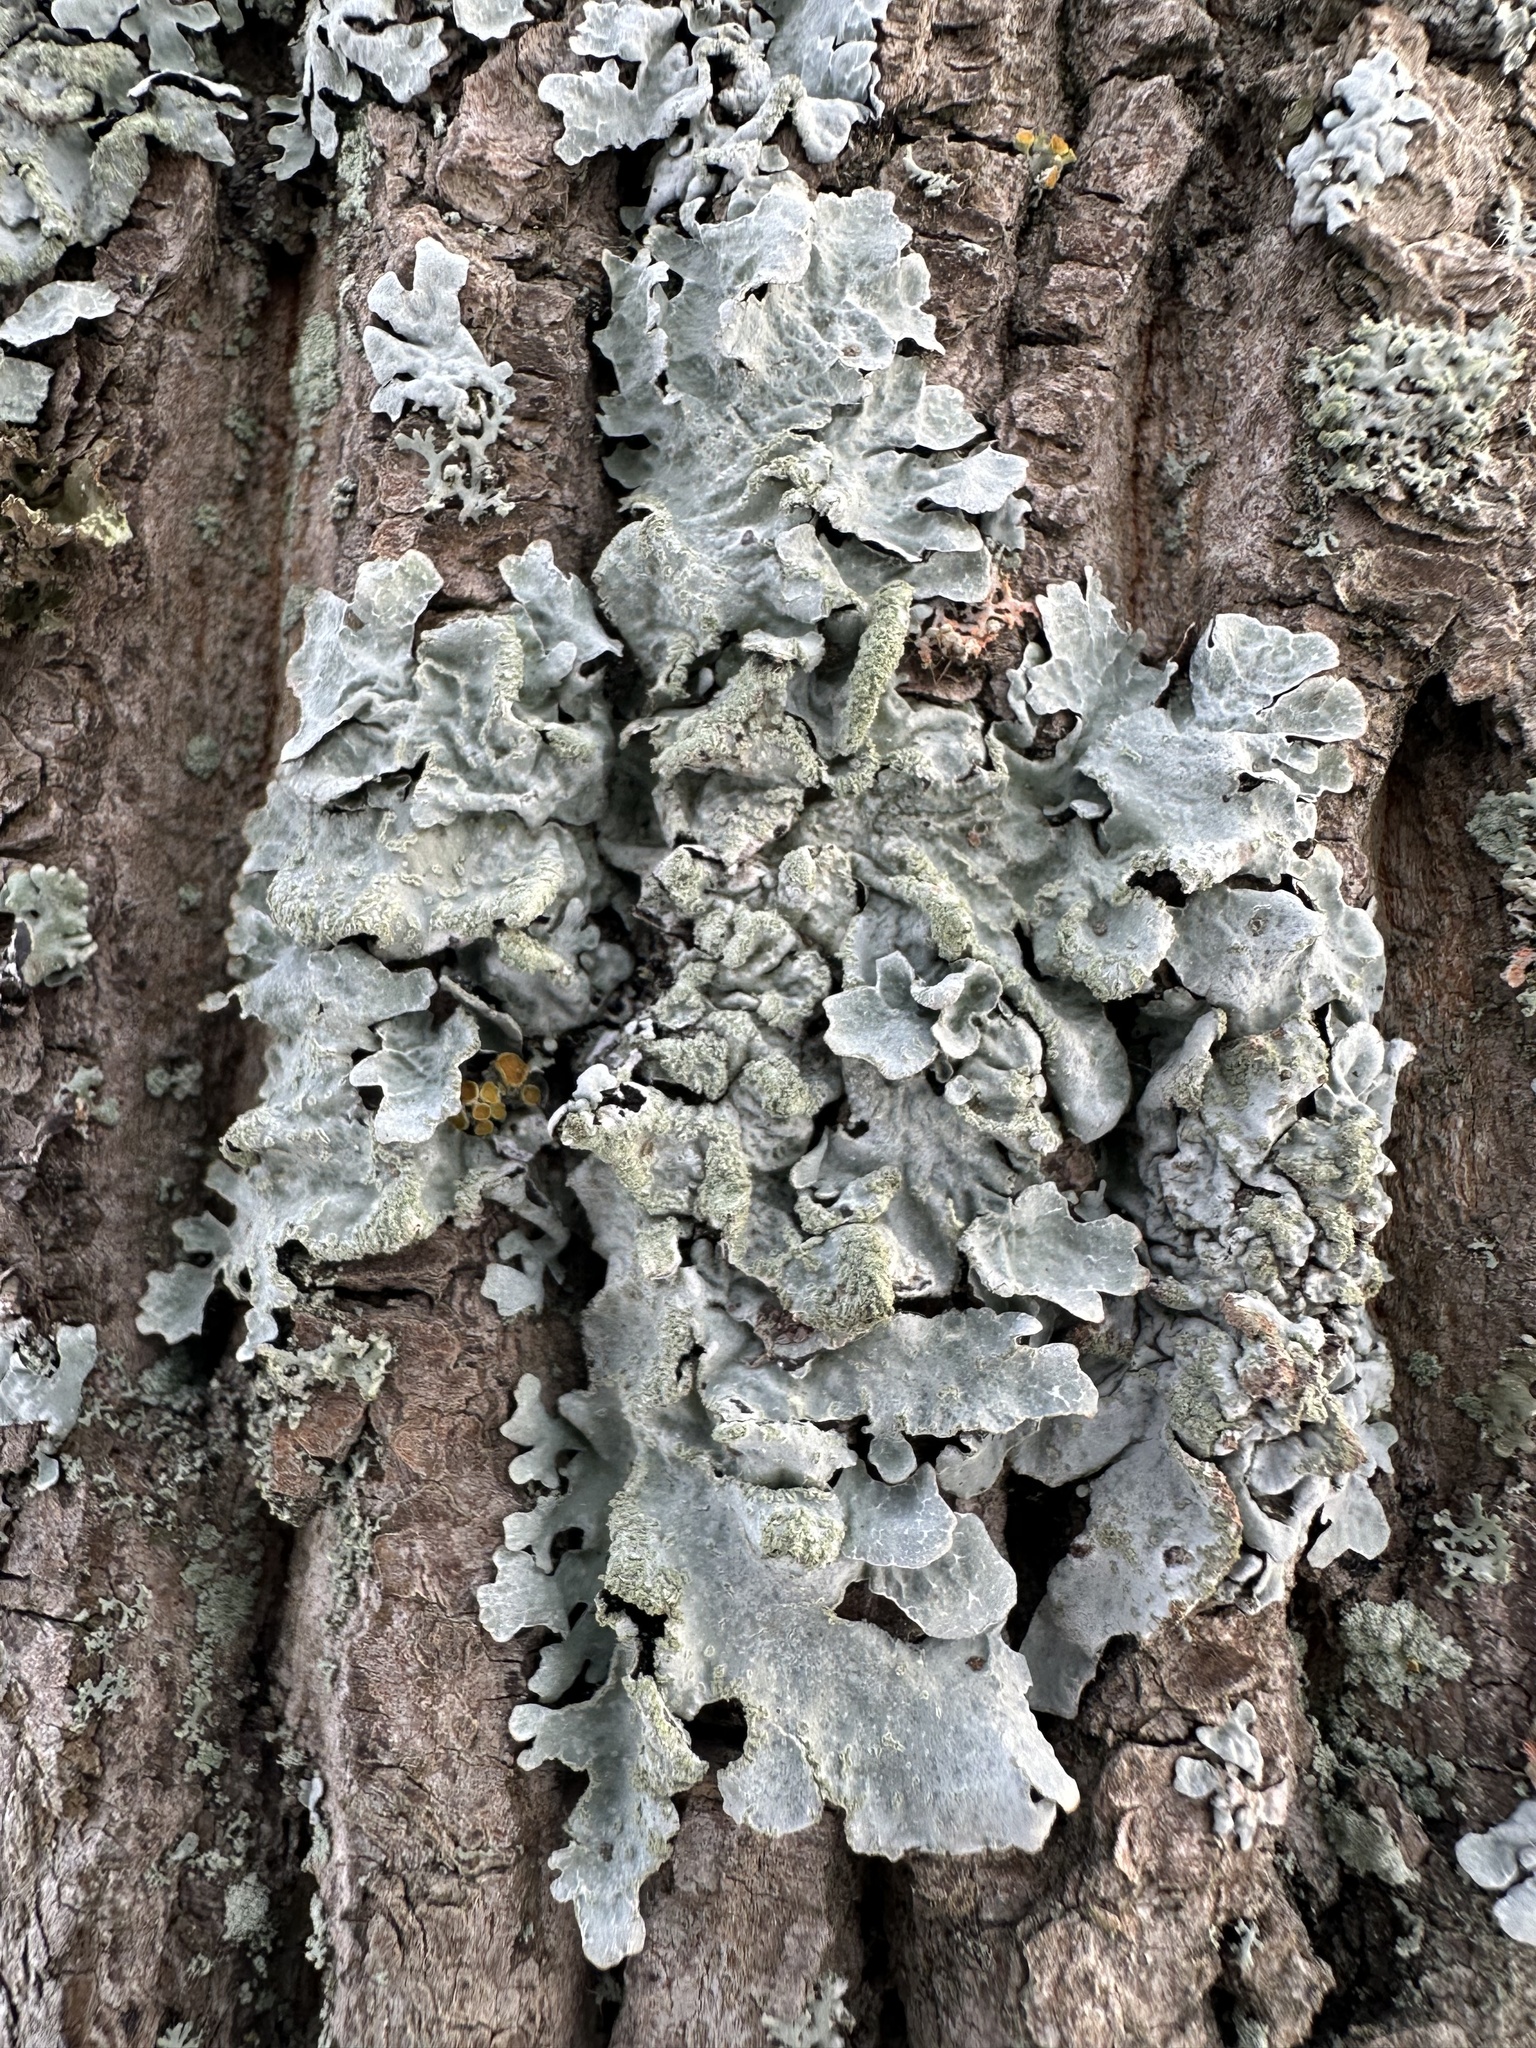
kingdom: Fungi
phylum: Ascomycota
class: Lecanoromycetes
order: Lecanorales
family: Parmeliaceae
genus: Parmelia
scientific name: Parmelia sulcata
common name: Netted shield lichen
